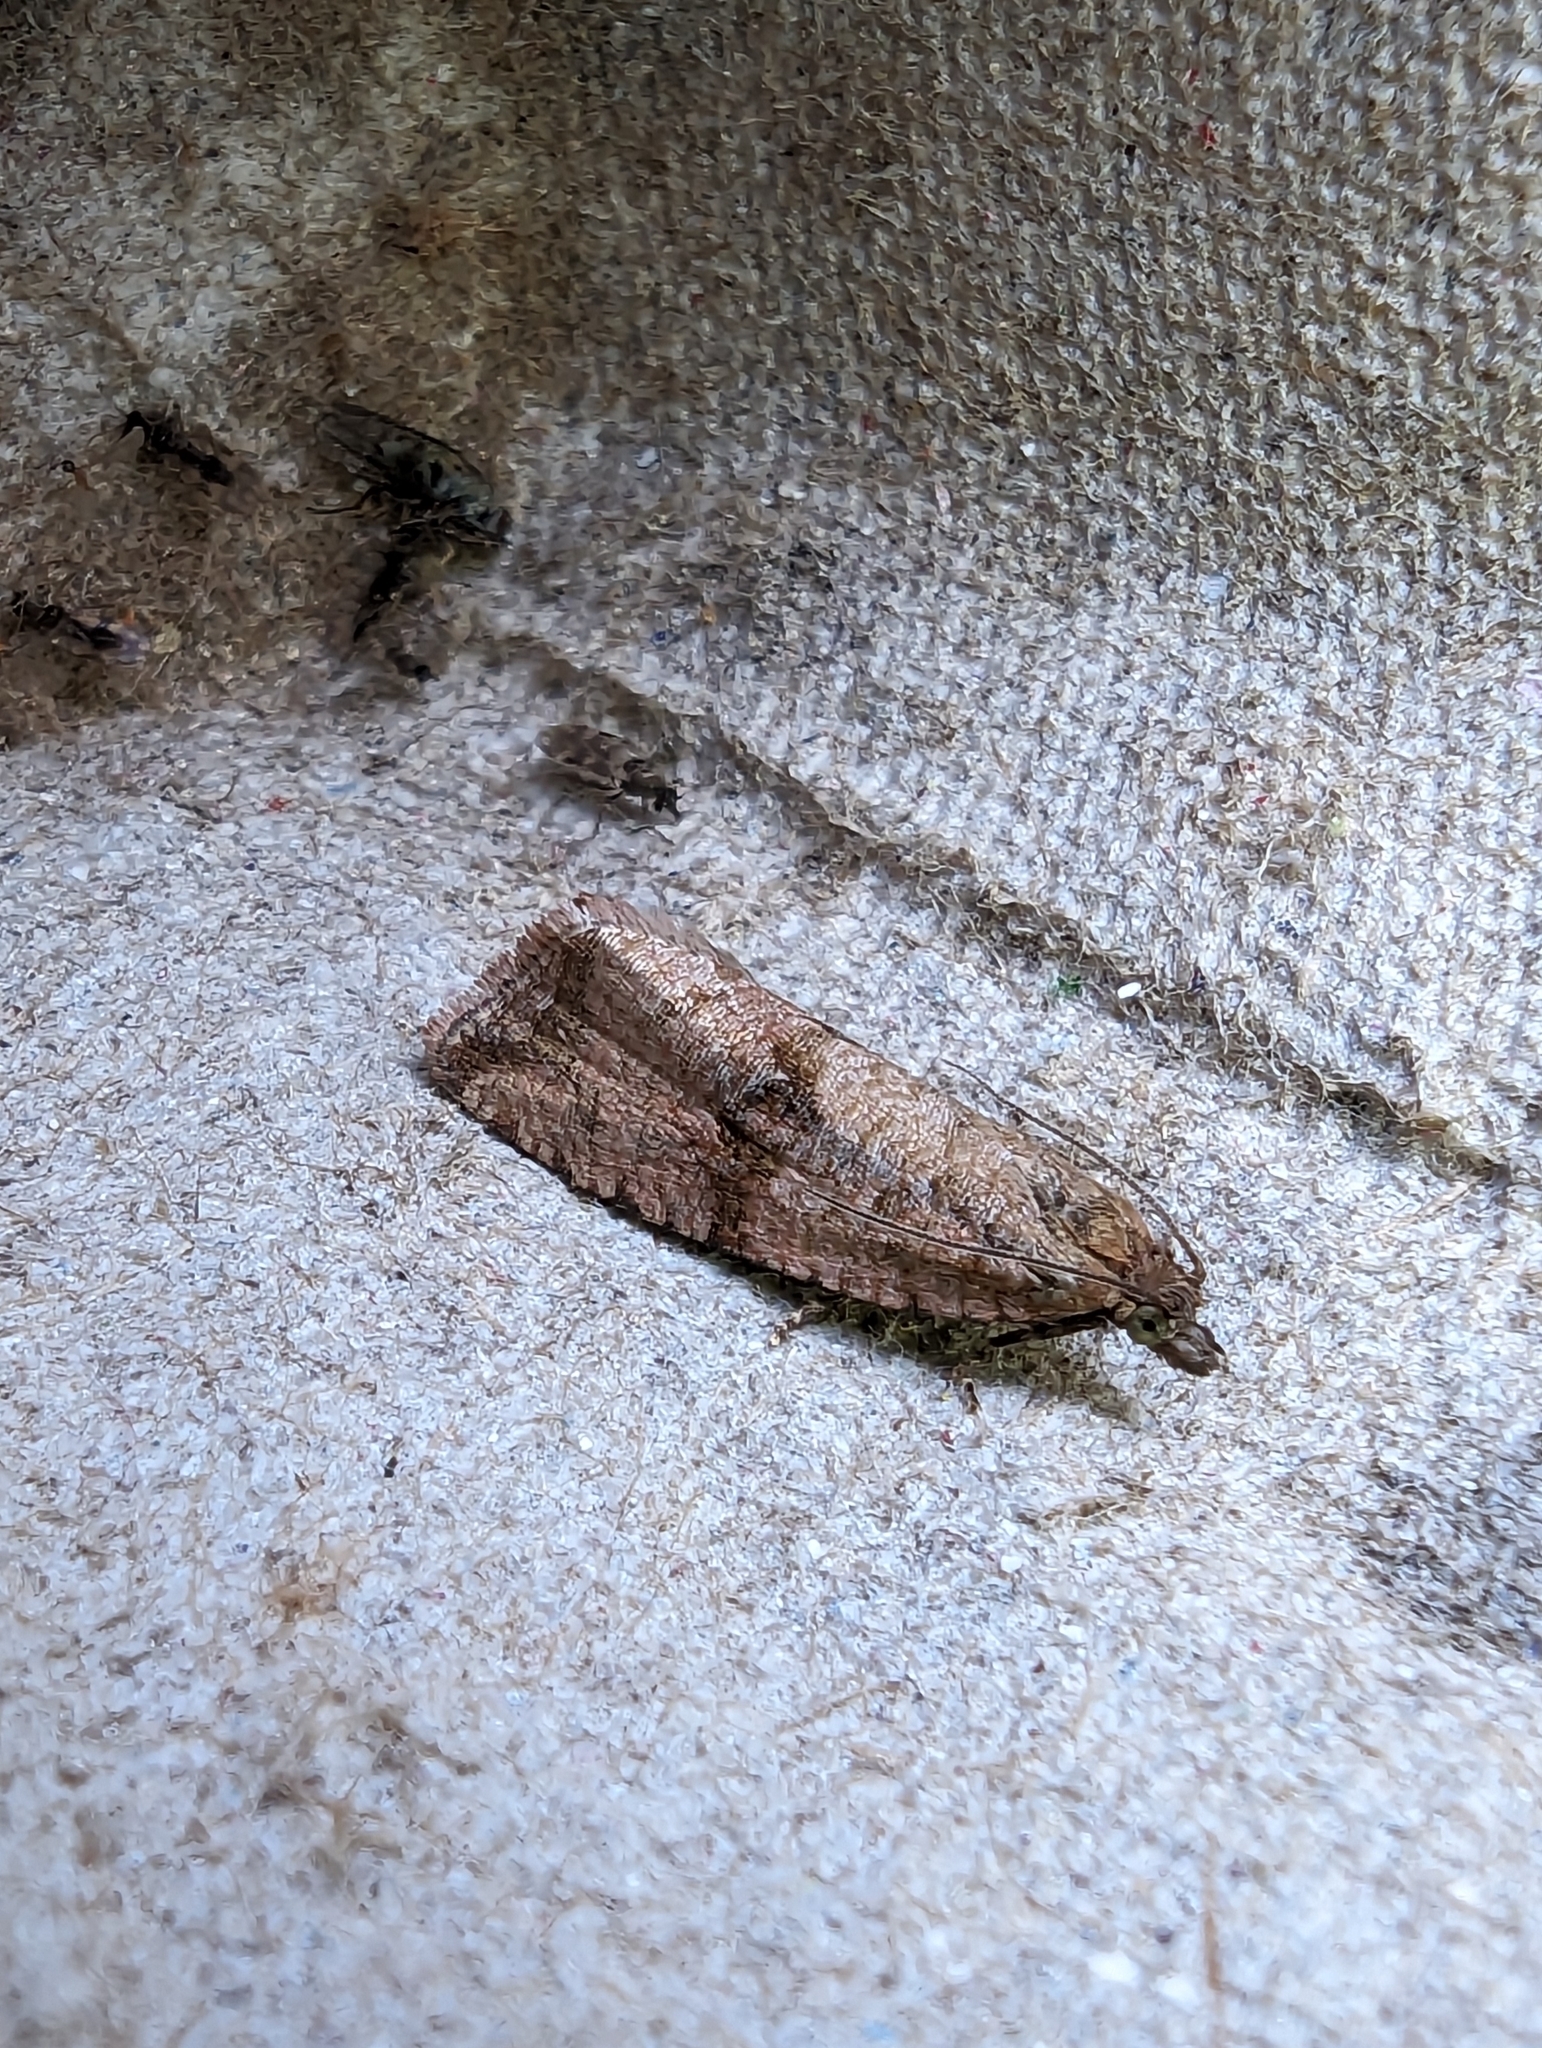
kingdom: Animalia
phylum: Arthropoda
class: Insecta
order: Lepidoptera
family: Tortricidae
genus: Celypha
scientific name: Celypha striana
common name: Barred marble
